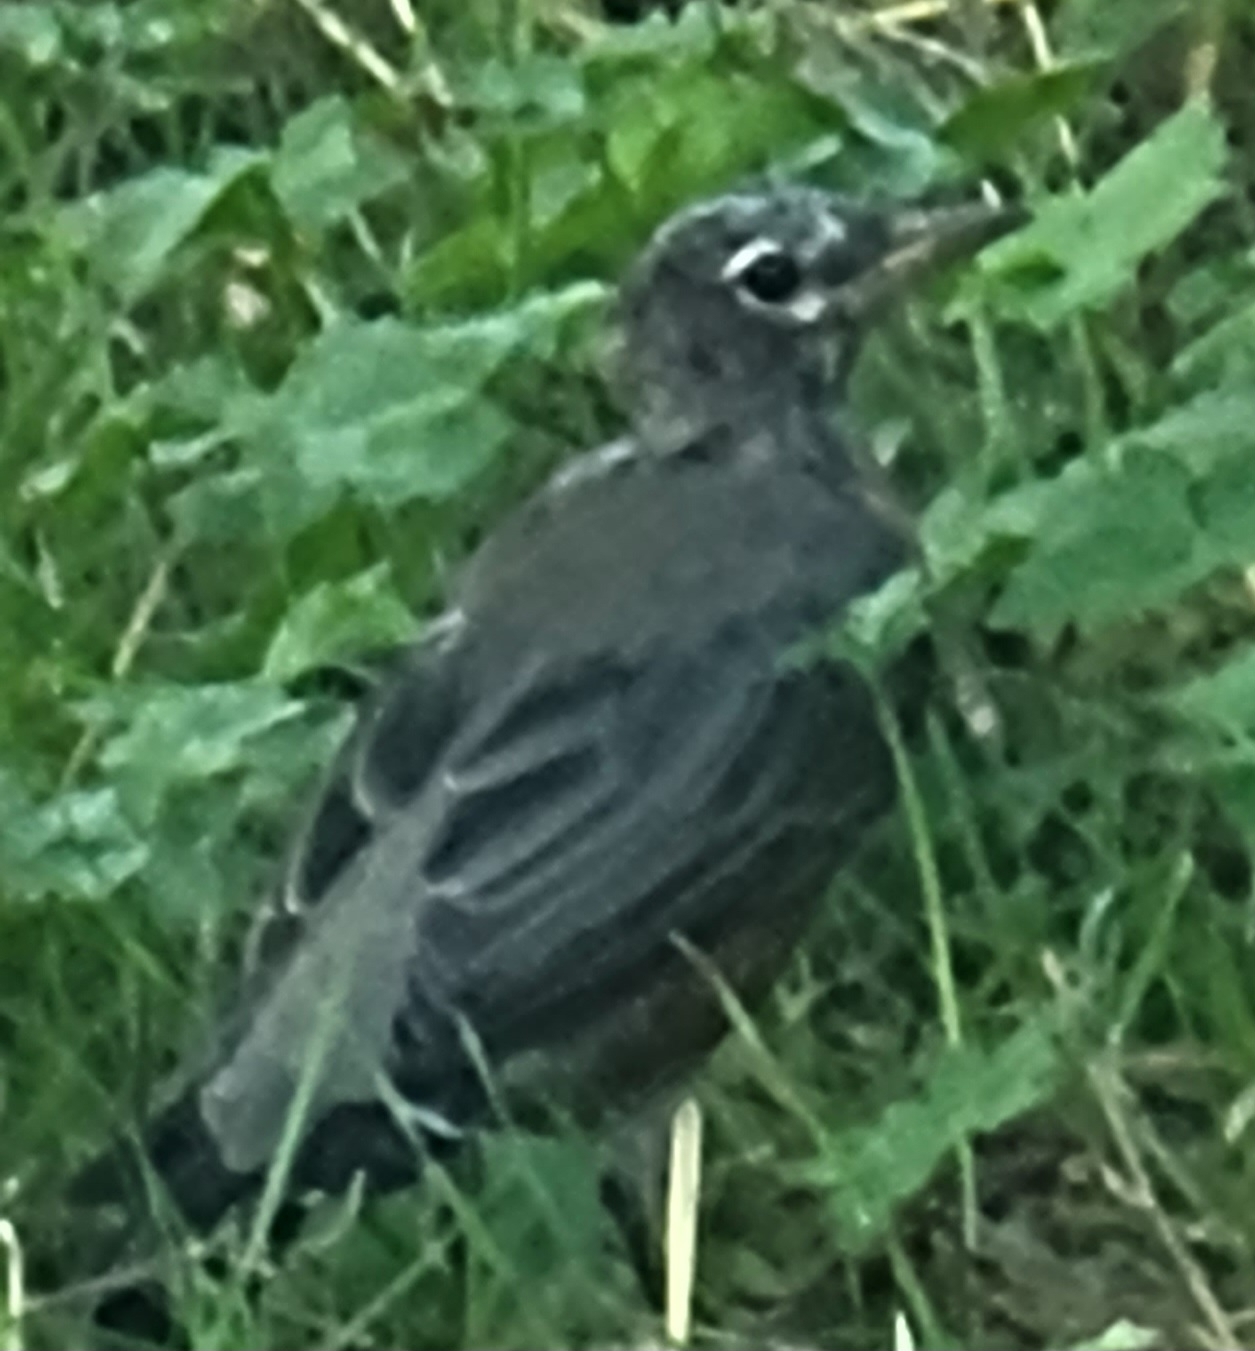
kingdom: Animalia
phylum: Chordata
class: Aves
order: Passeriformes
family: Turdidae
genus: Turdus
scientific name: Turdus migratorius
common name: American robin
